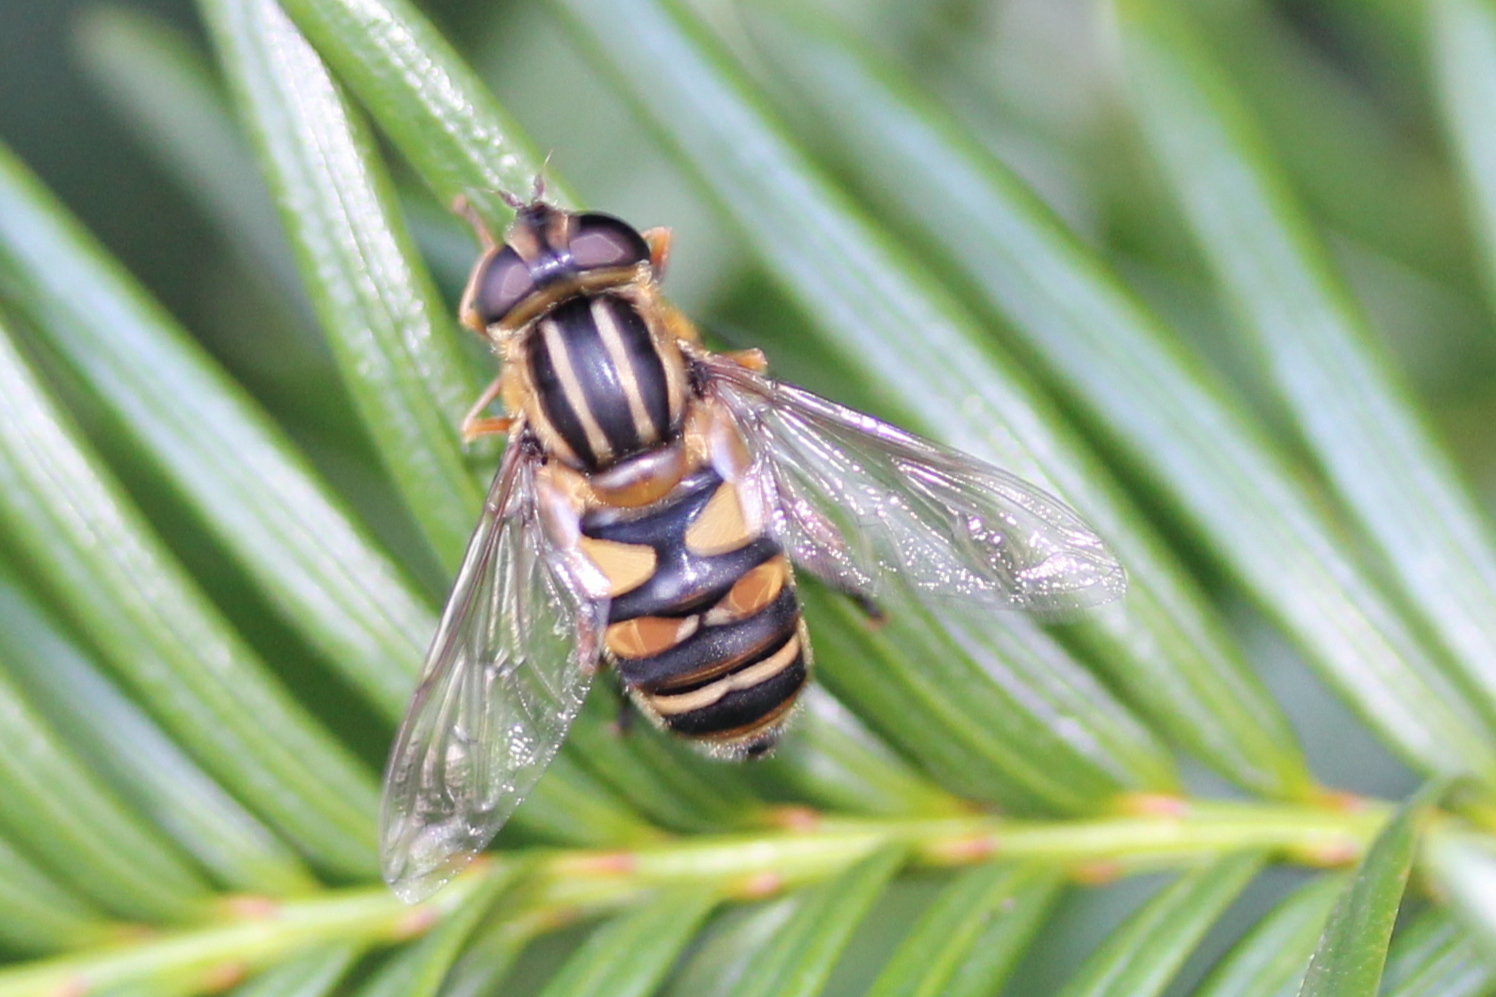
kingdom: Animalia
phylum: Arthropoda
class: Insecta
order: Diptera
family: Syrphidae
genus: Helophilus
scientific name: Helophilus fasciatus
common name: Narrow-headed marsh fly
